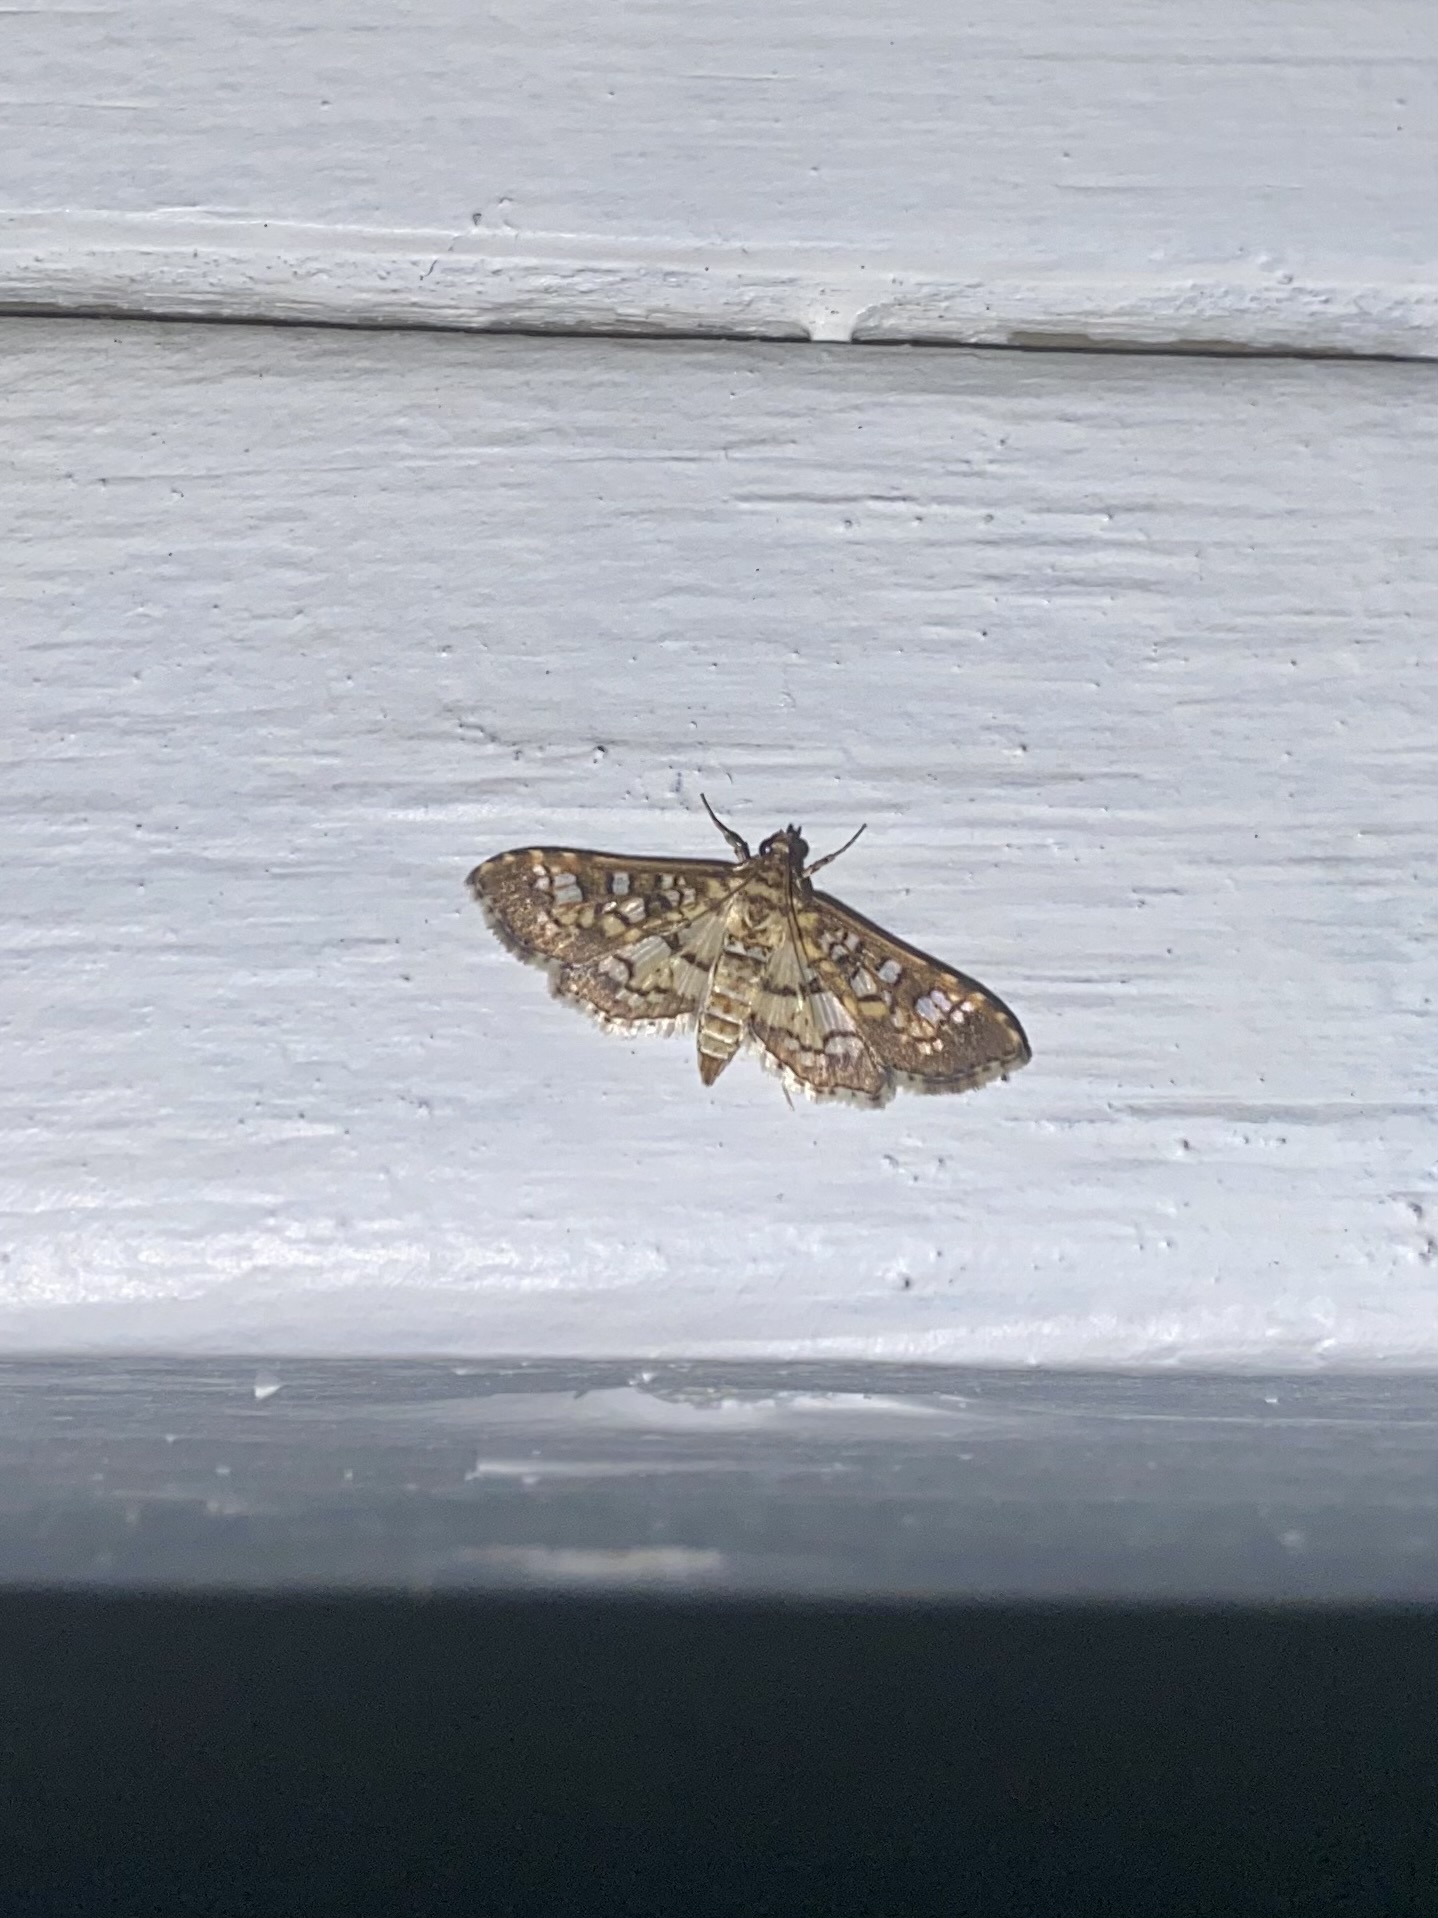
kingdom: Animalia
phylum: Arthropoda
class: Insecta
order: Lepidoptera
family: Crambidae
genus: Samea
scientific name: Samea ecclesialis
